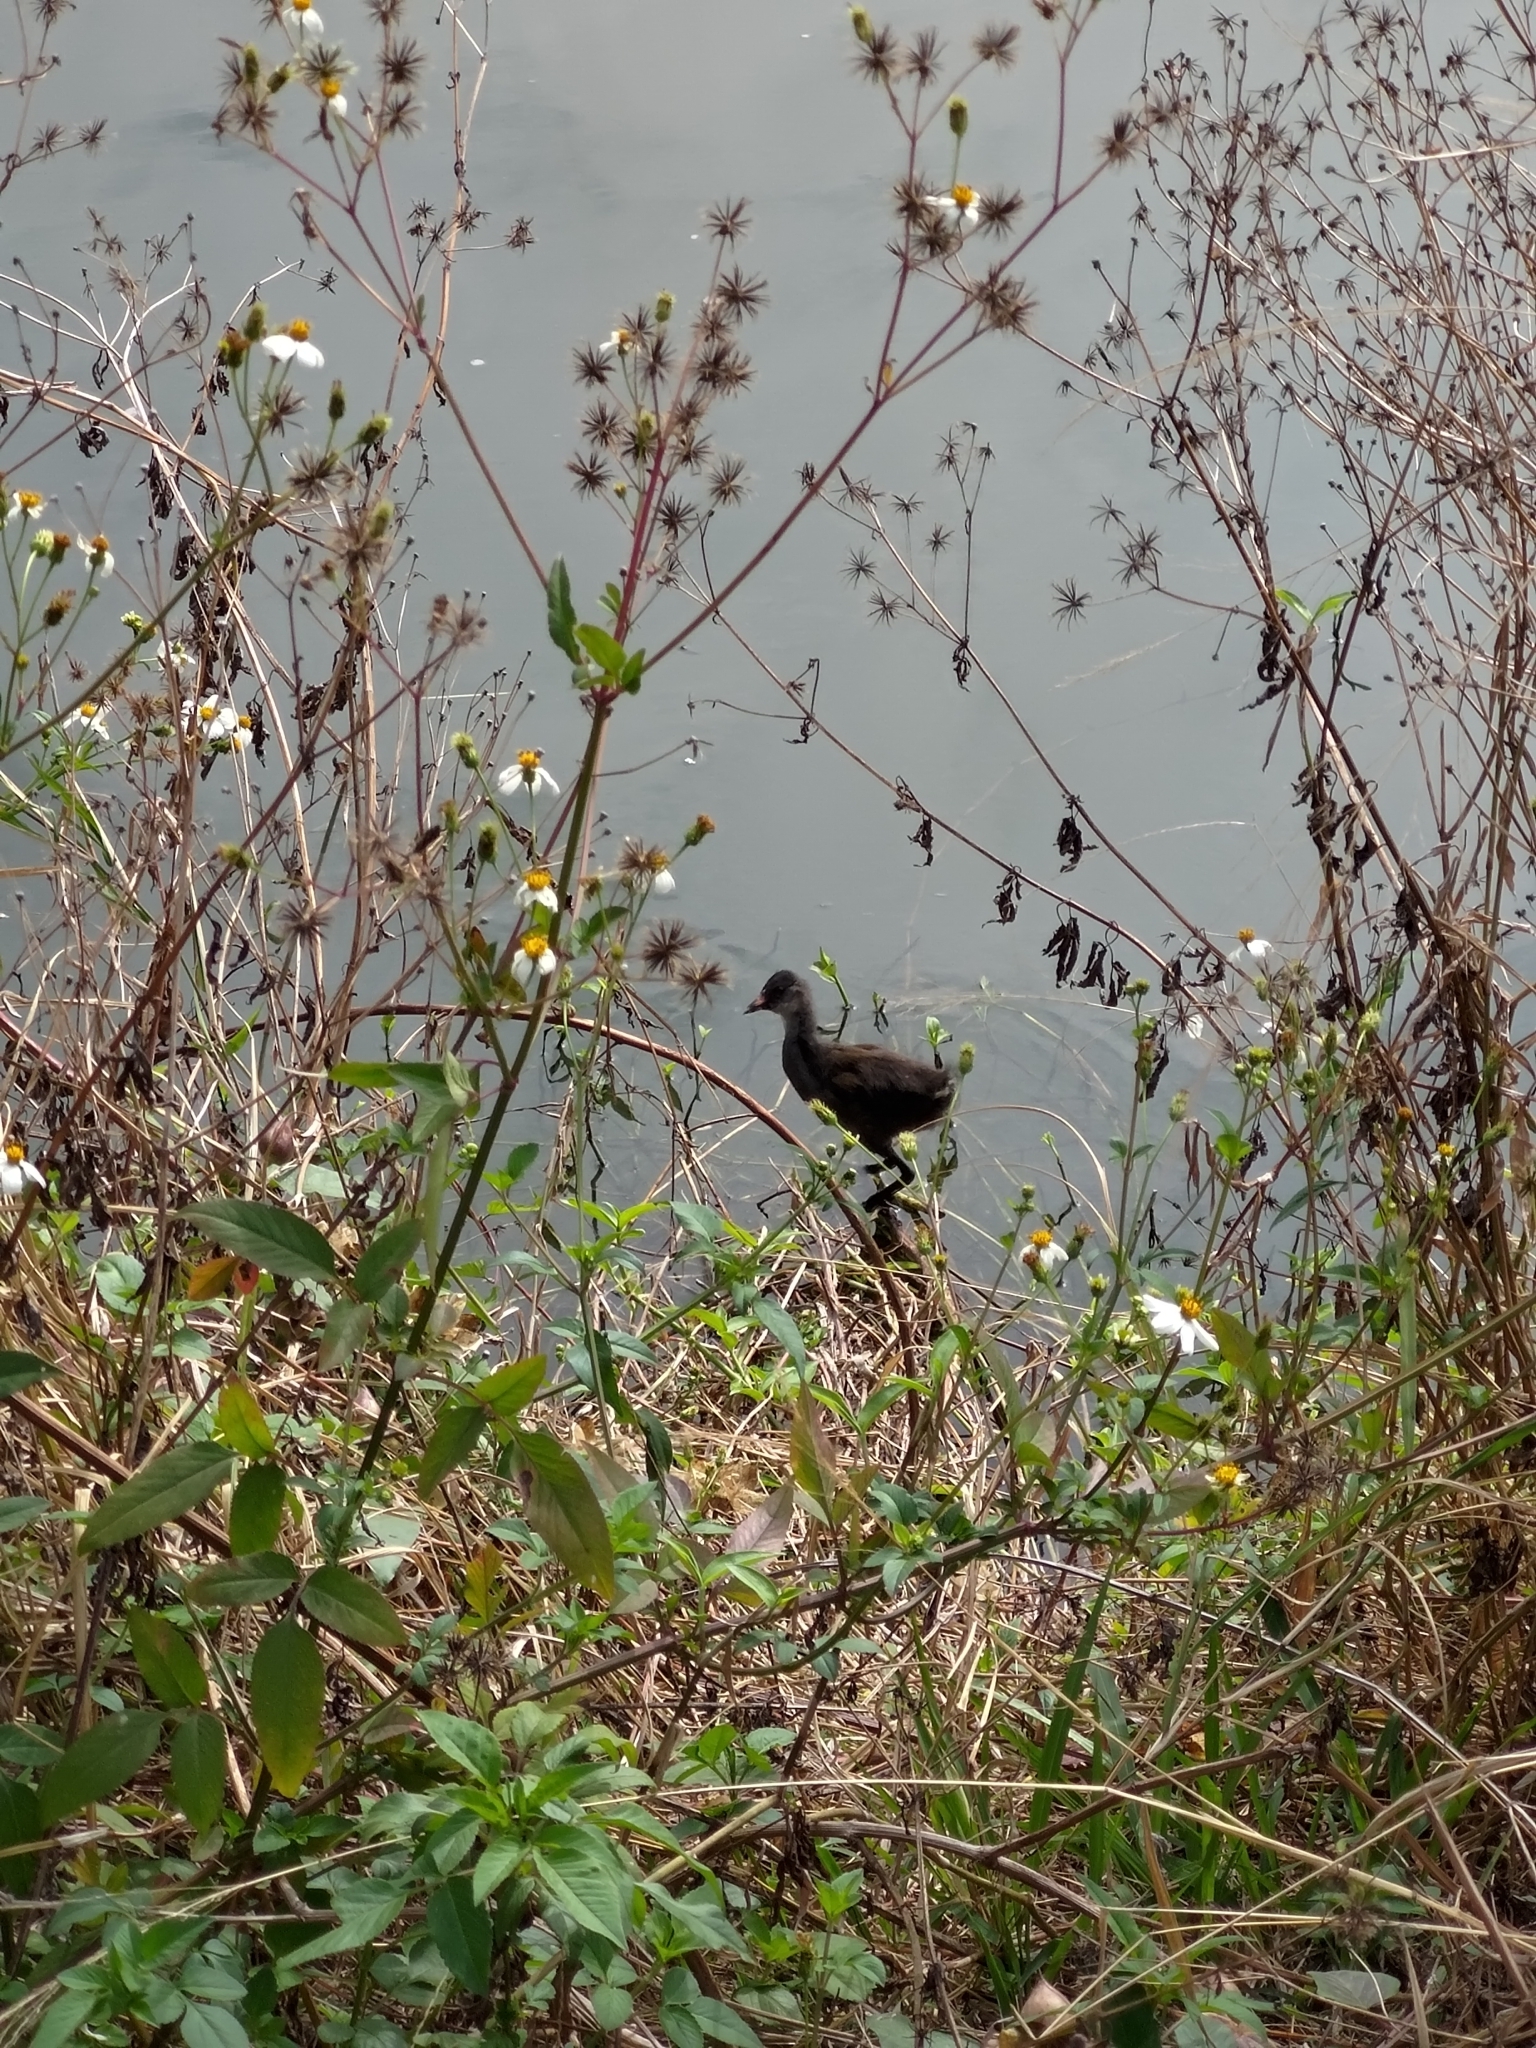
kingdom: Animalia
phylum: Chordata
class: Aves
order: Gruiformes
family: Rallidae
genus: Gallinula
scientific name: Gallinula chloropus
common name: Common moorhen
